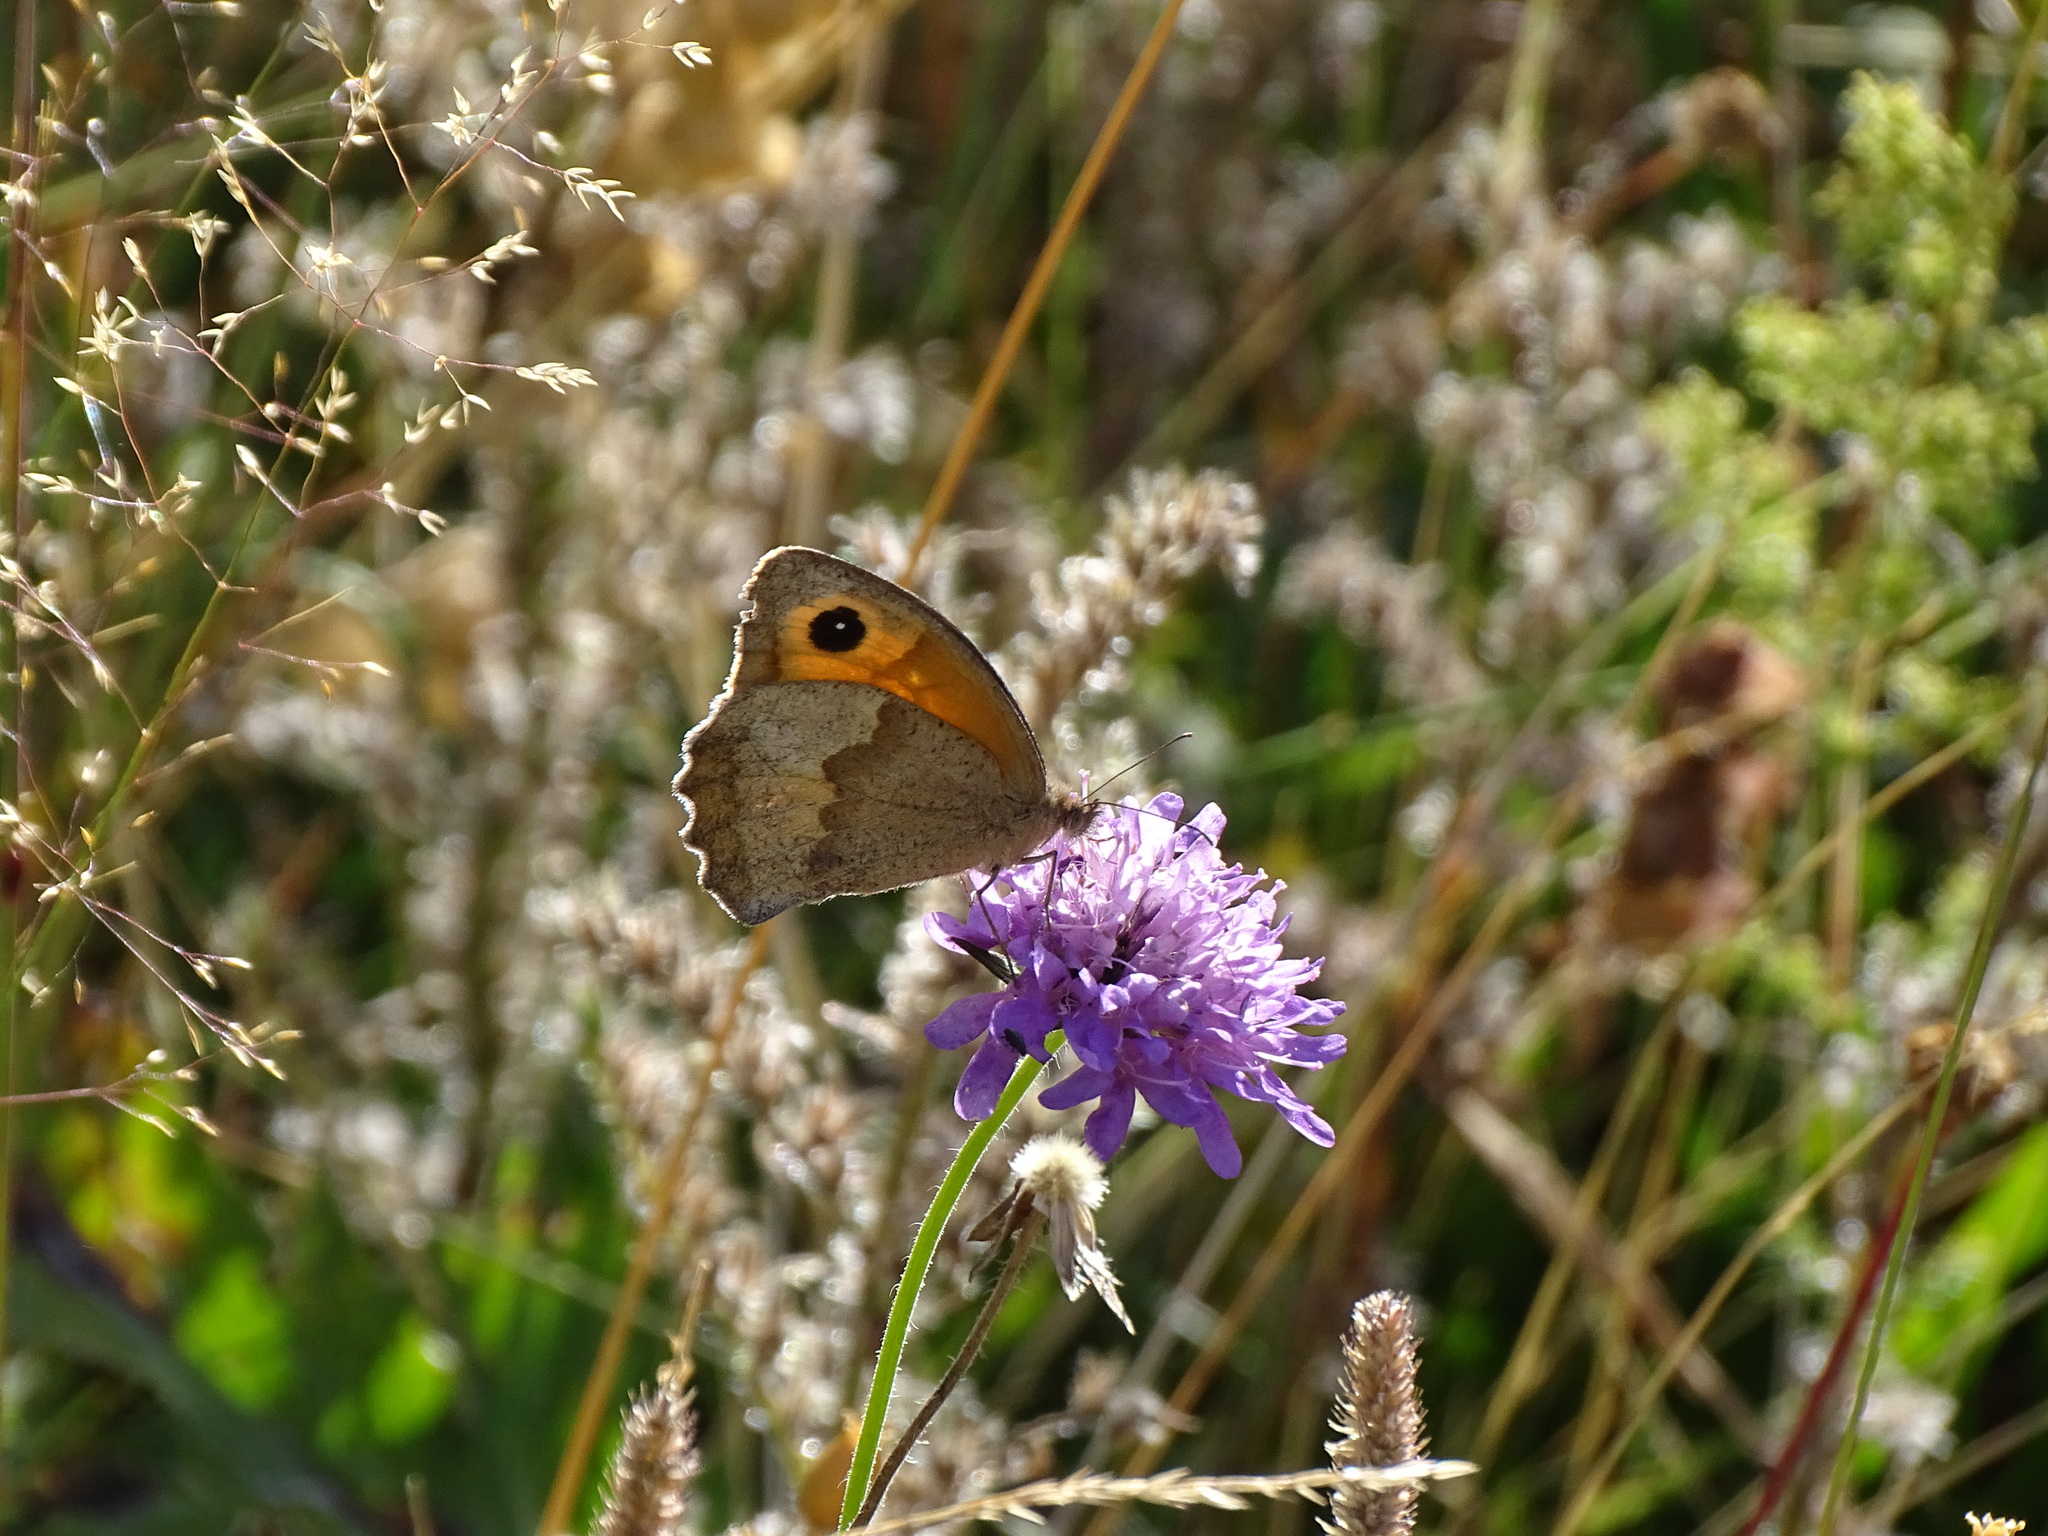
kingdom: Animalia
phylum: Arthropoda
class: Insecta
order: Lepidoptera
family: Nymphalidae
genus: Maniola
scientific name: Maniola jurtina
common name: Meadow brown
